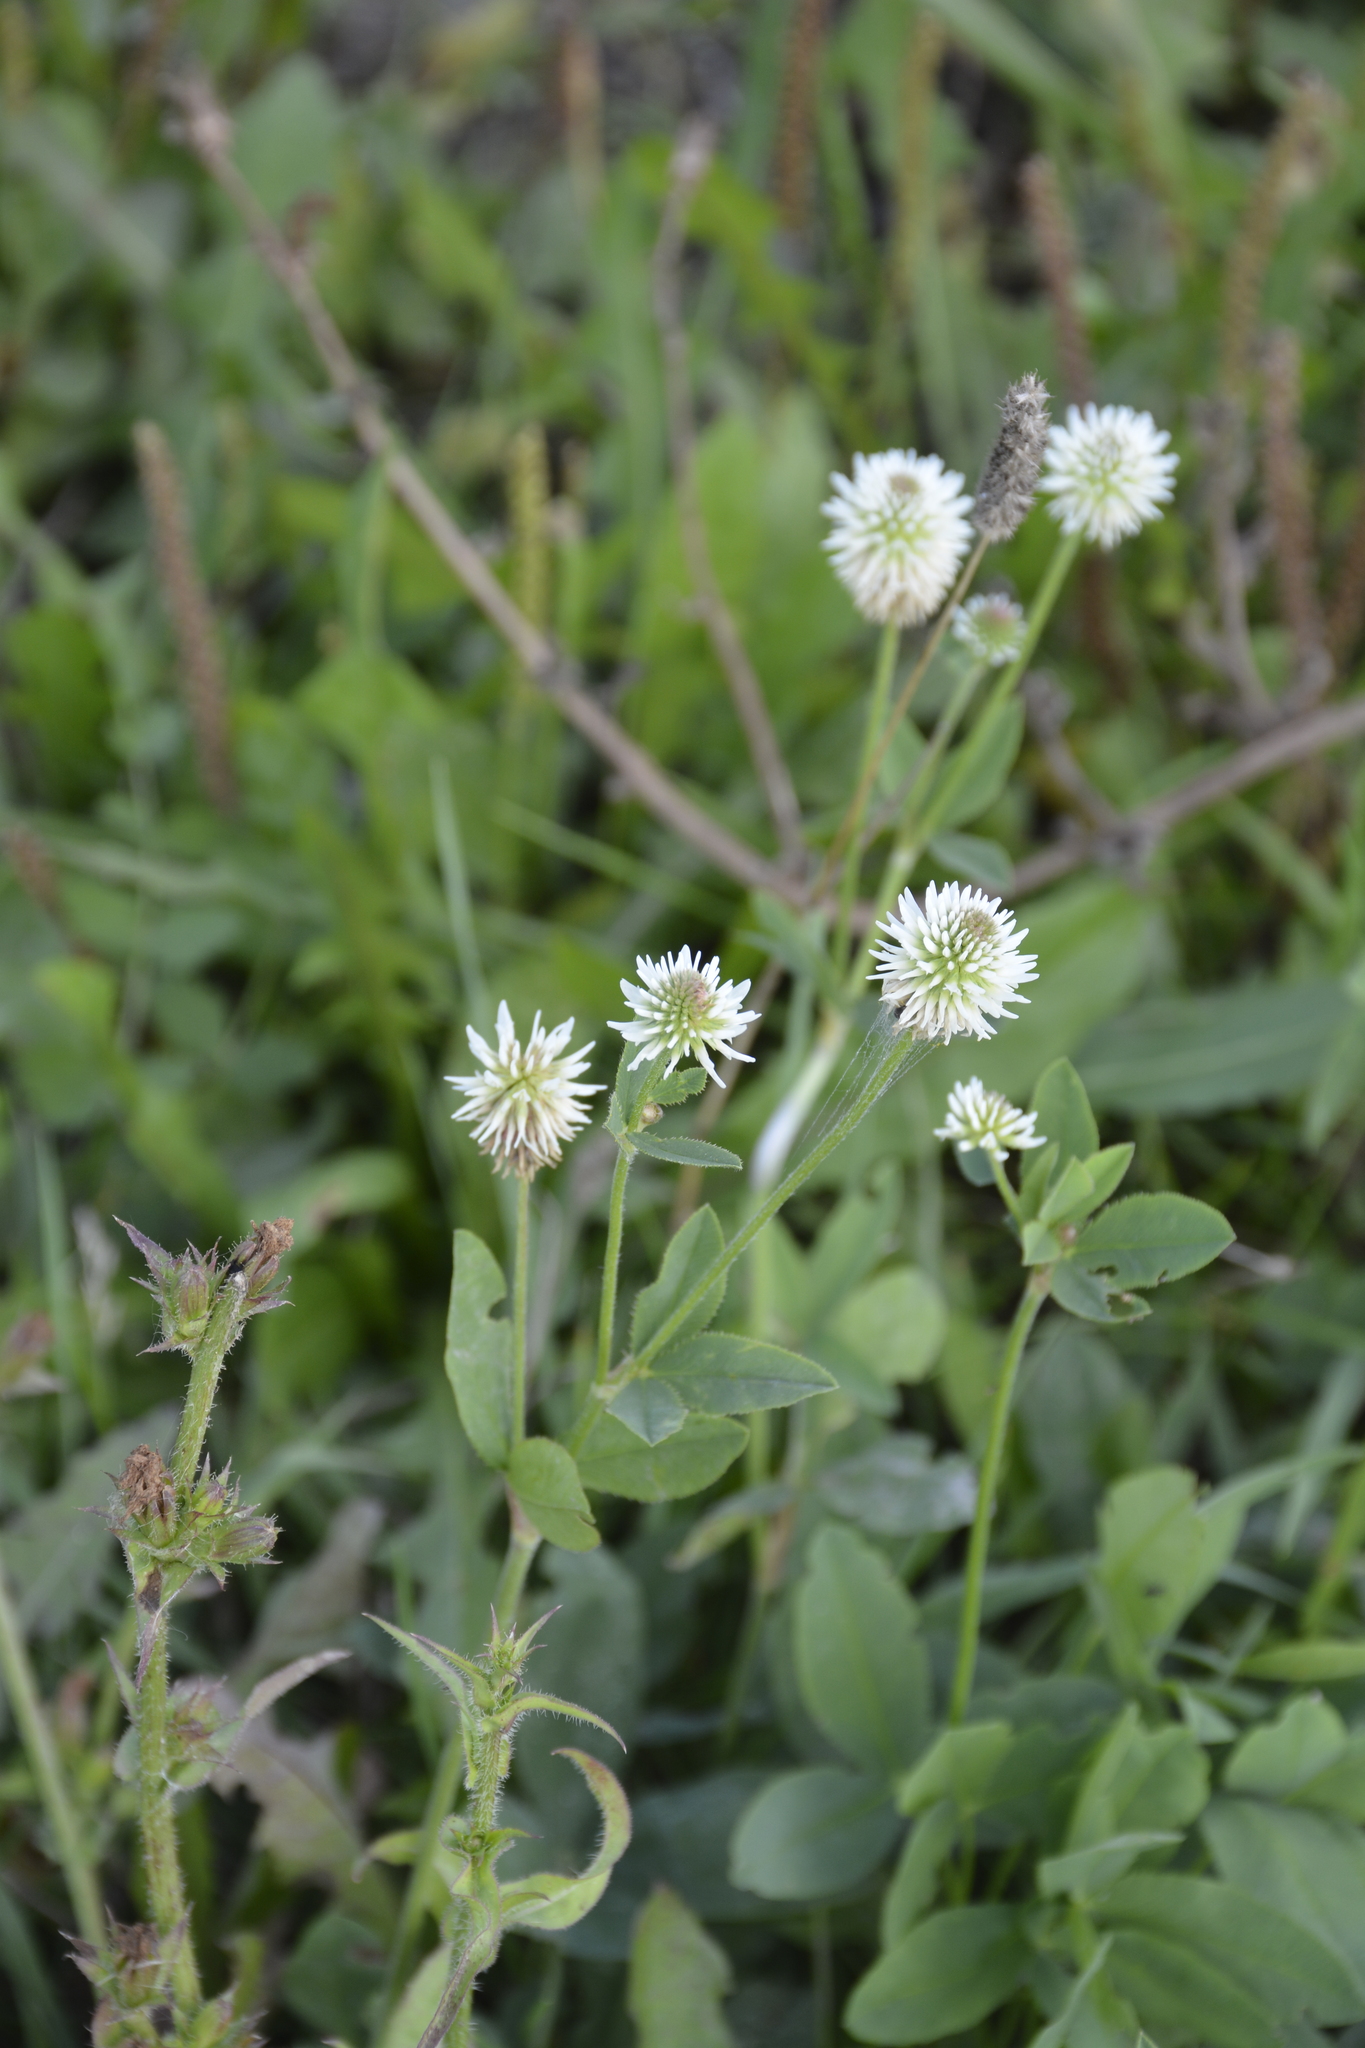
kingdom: Plantae
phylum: Tracheophyta
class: Magnoliopsida
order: Fabales
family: Fabaceae
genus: Trifolium
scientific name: Trifolium montanum
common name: Mountain clover
